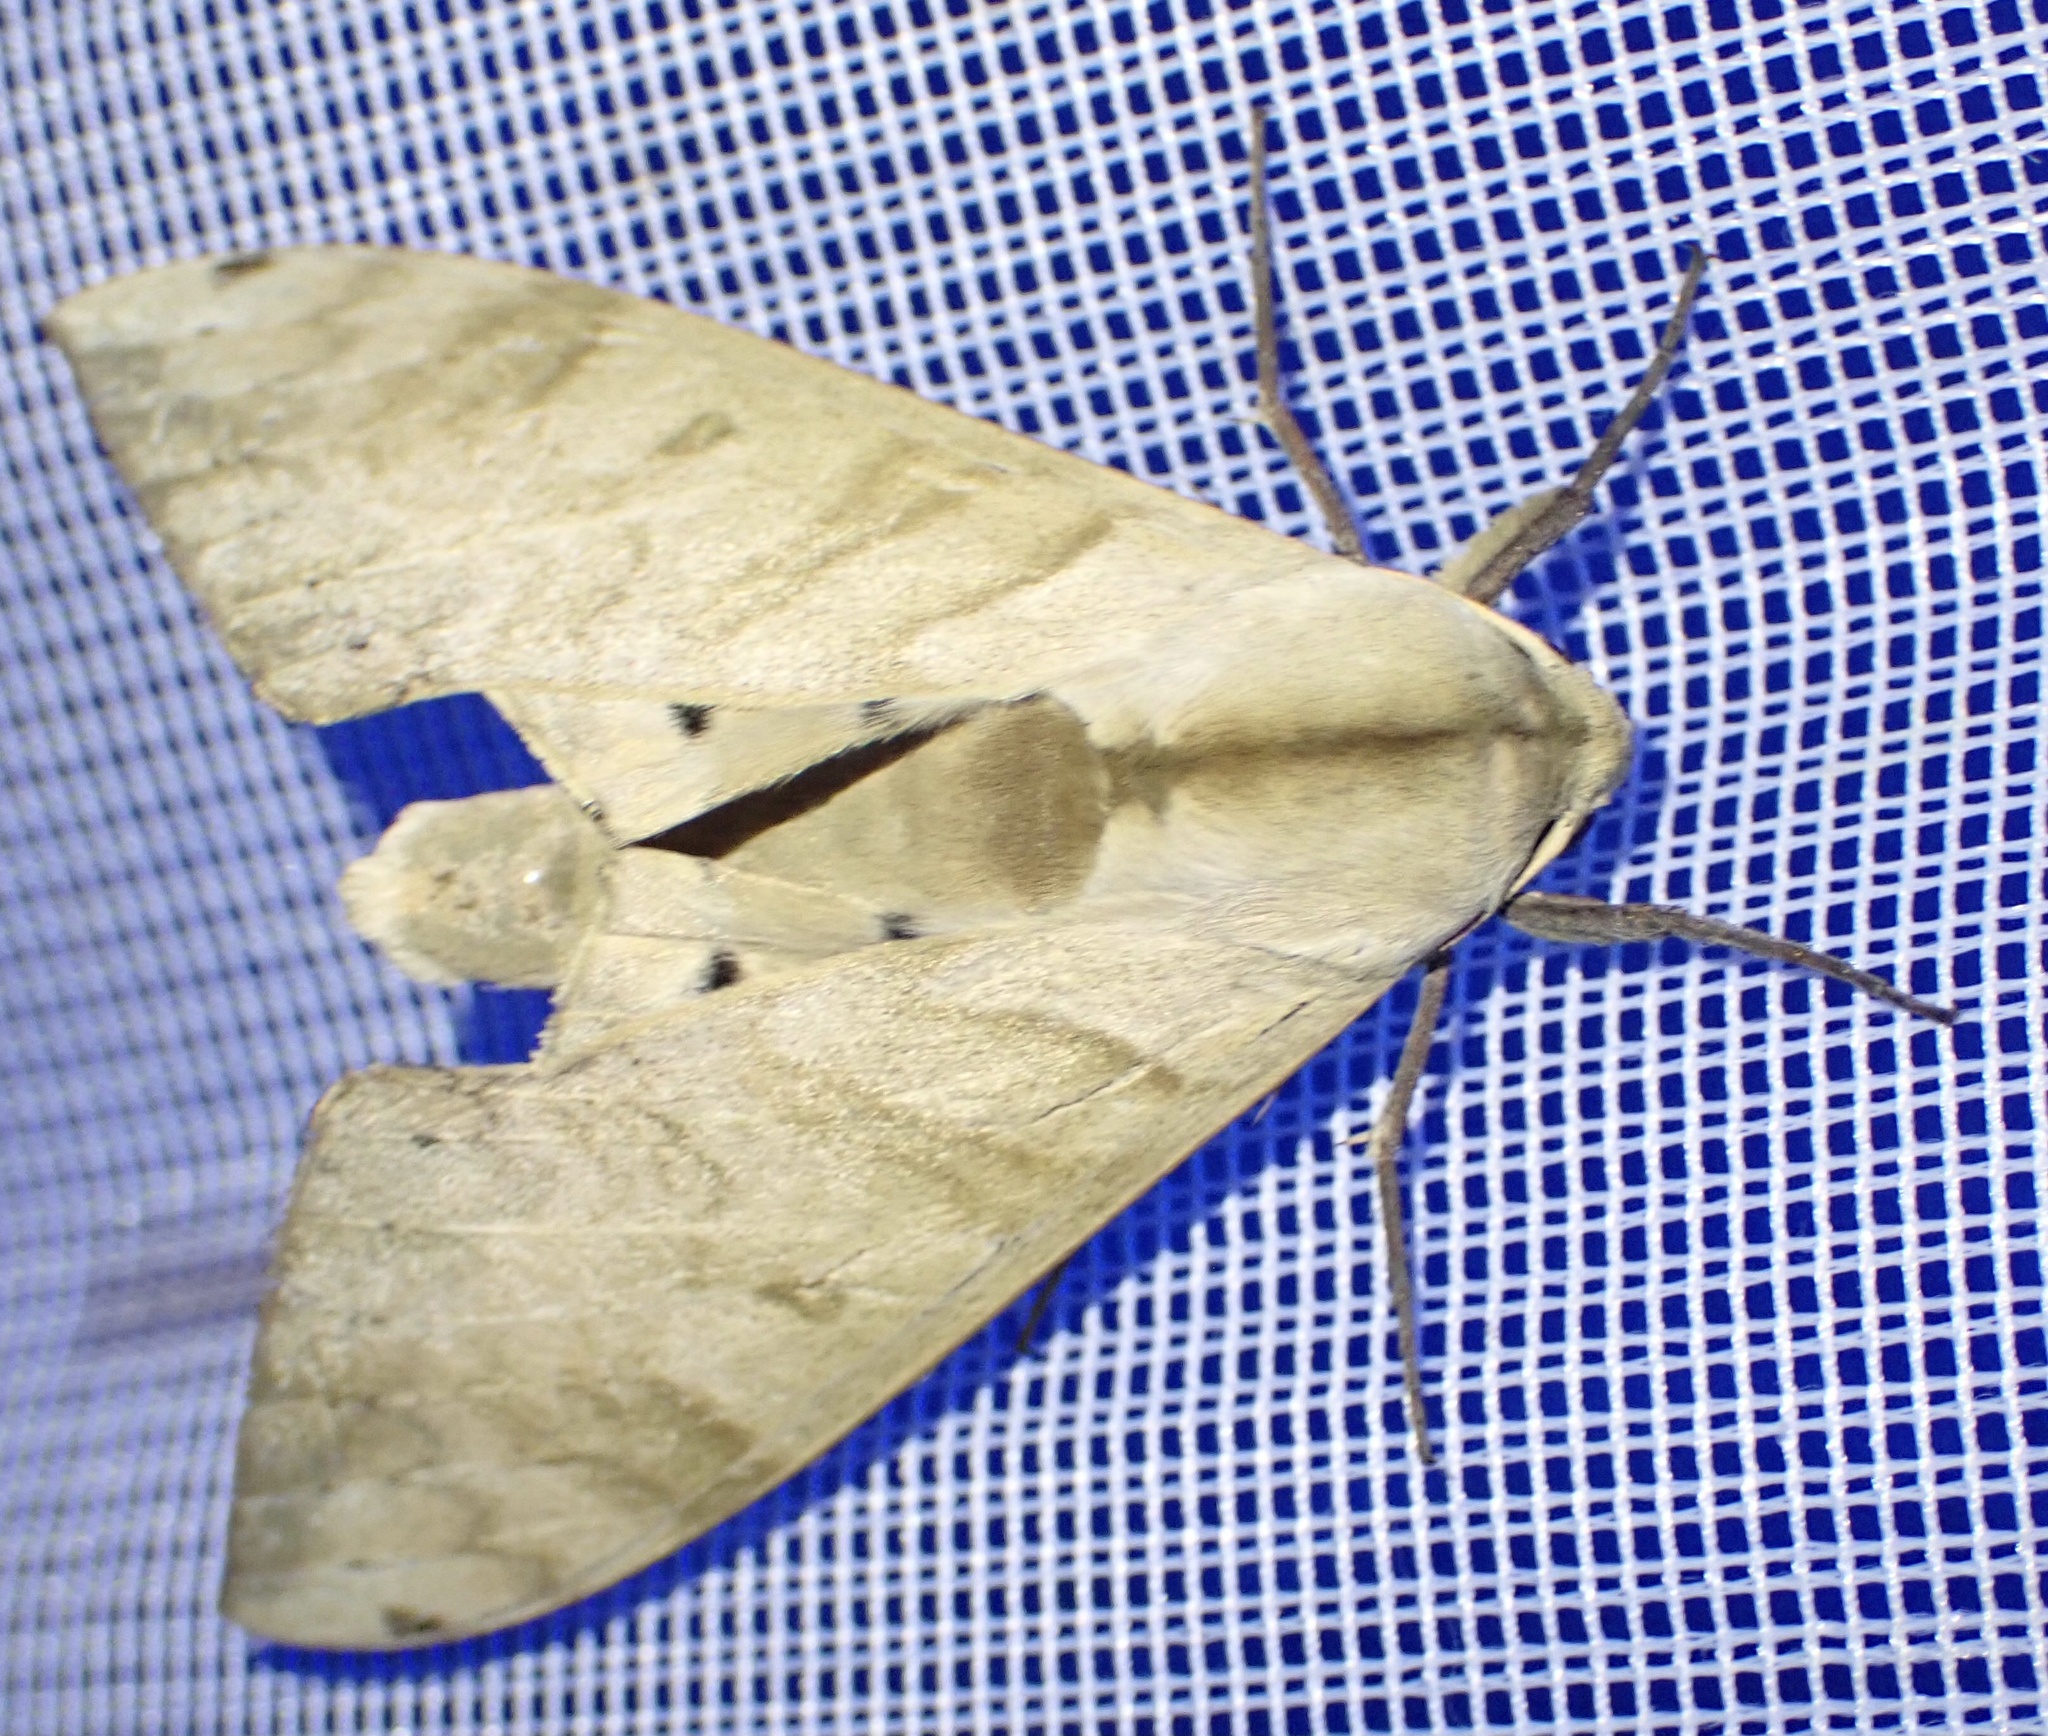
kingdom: Animalia
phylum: Arthropoda
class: Insecta
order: Lepidoptera
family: Sphingidae
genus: Pseudoclanis
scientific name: Pseudoclanis occidentalis
